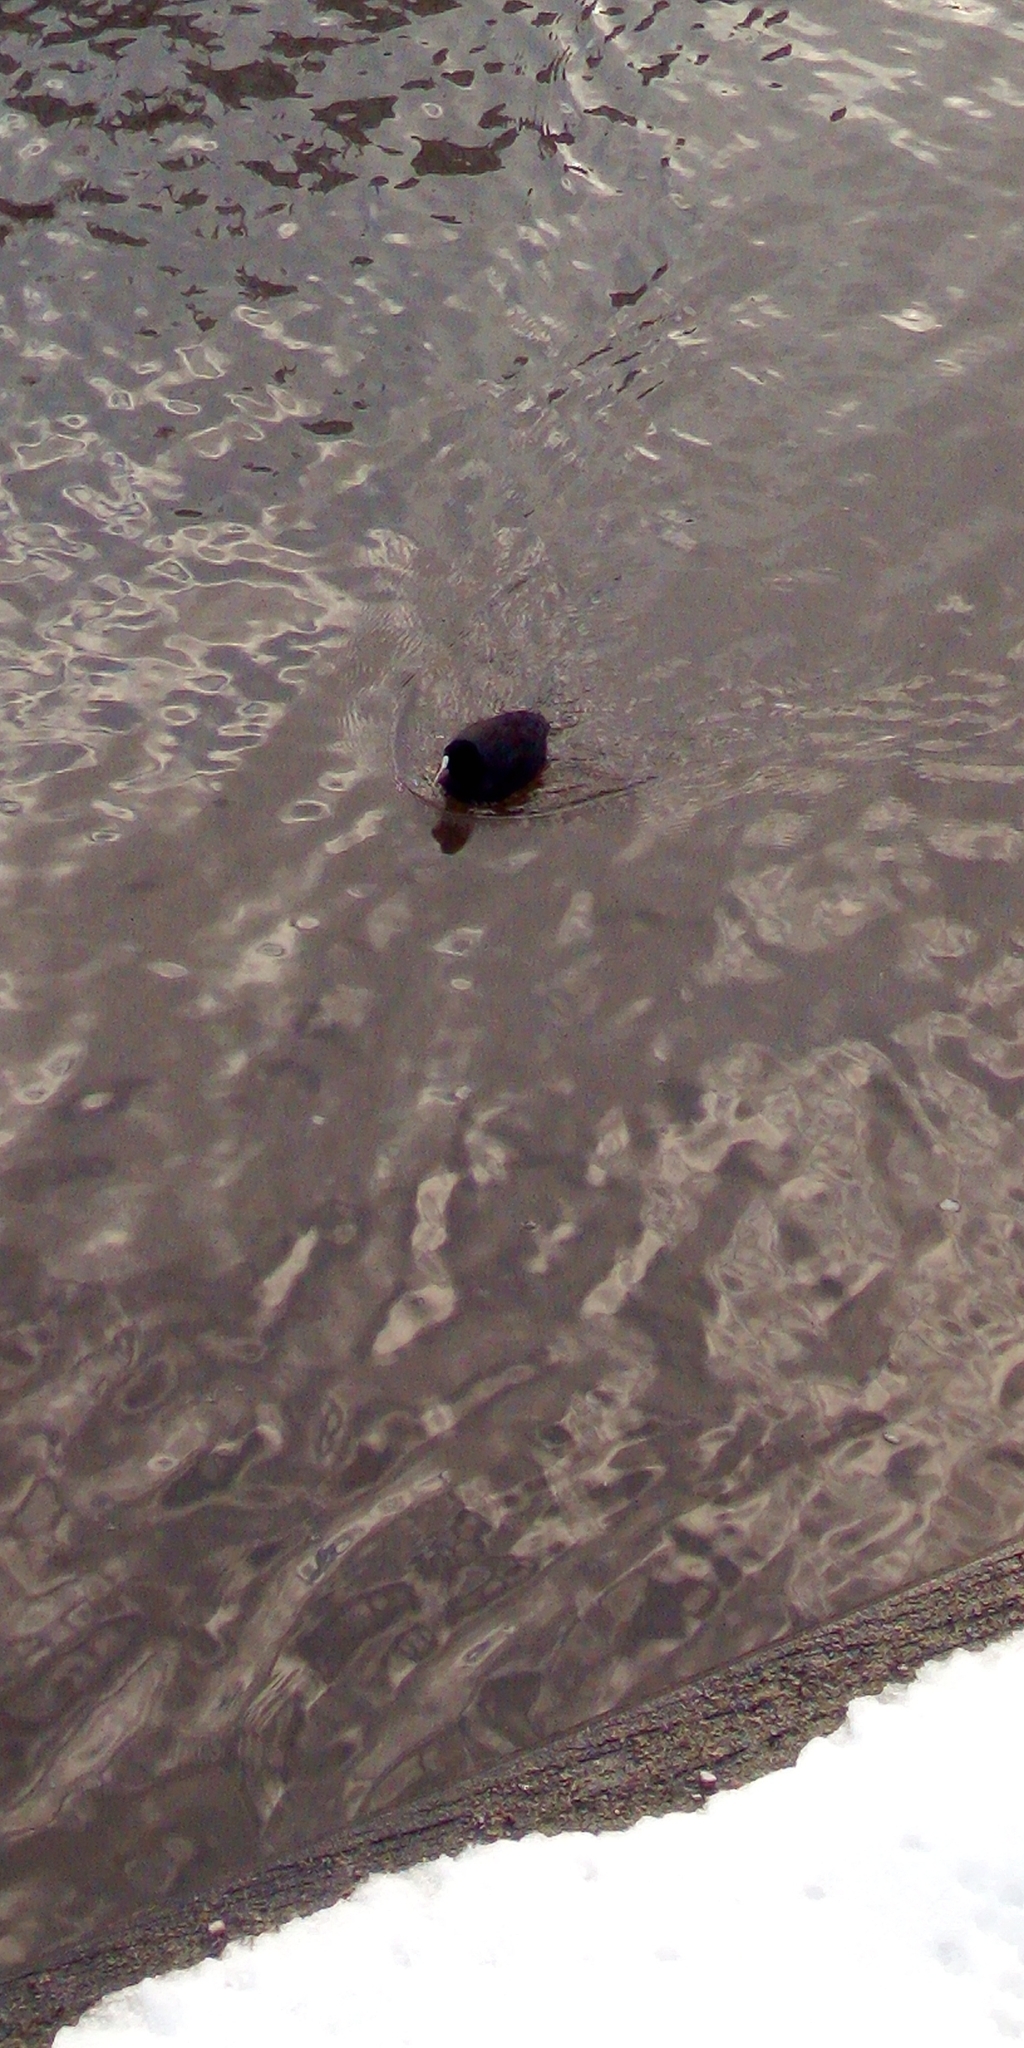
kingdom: Animalia
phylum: Chordata
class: Aves
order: Gruiformes
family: Rallidae
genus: Fulica
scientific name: Fulica atra
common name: Eurasian coot
